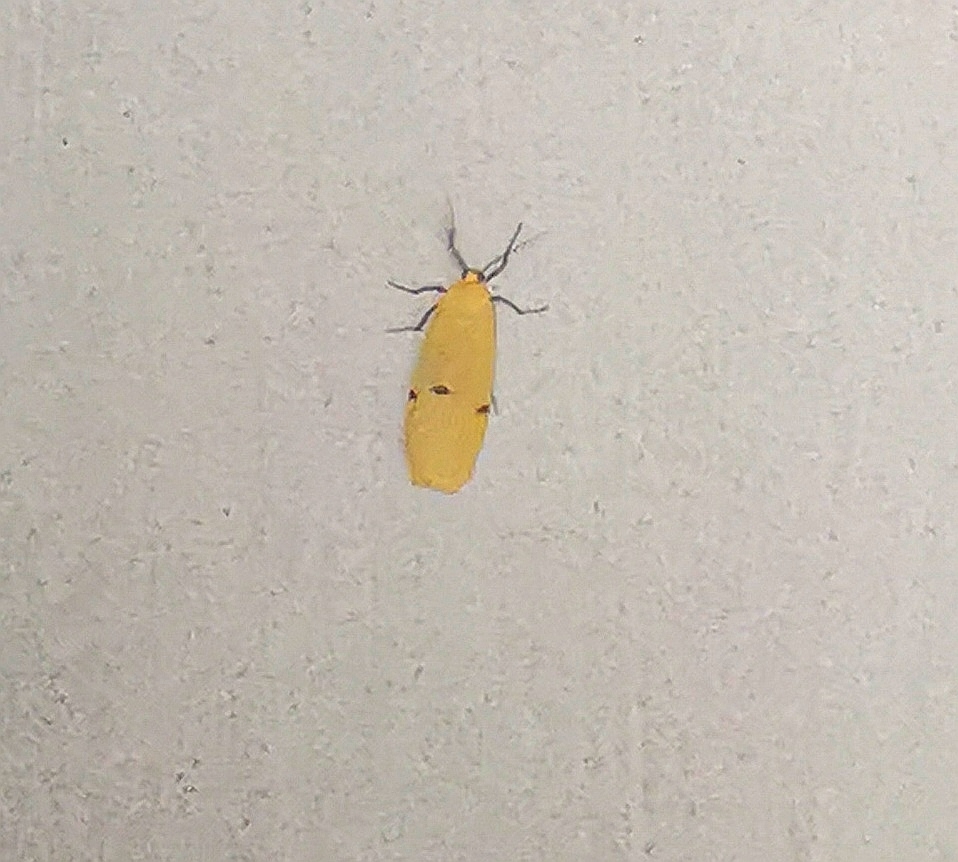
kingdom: Animalia
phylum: Arthropoda
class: Insecta
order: Lepidoptera
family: Erebidae
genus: Lithosia
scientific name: Lithosia quadra
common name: Four-spotted footman
